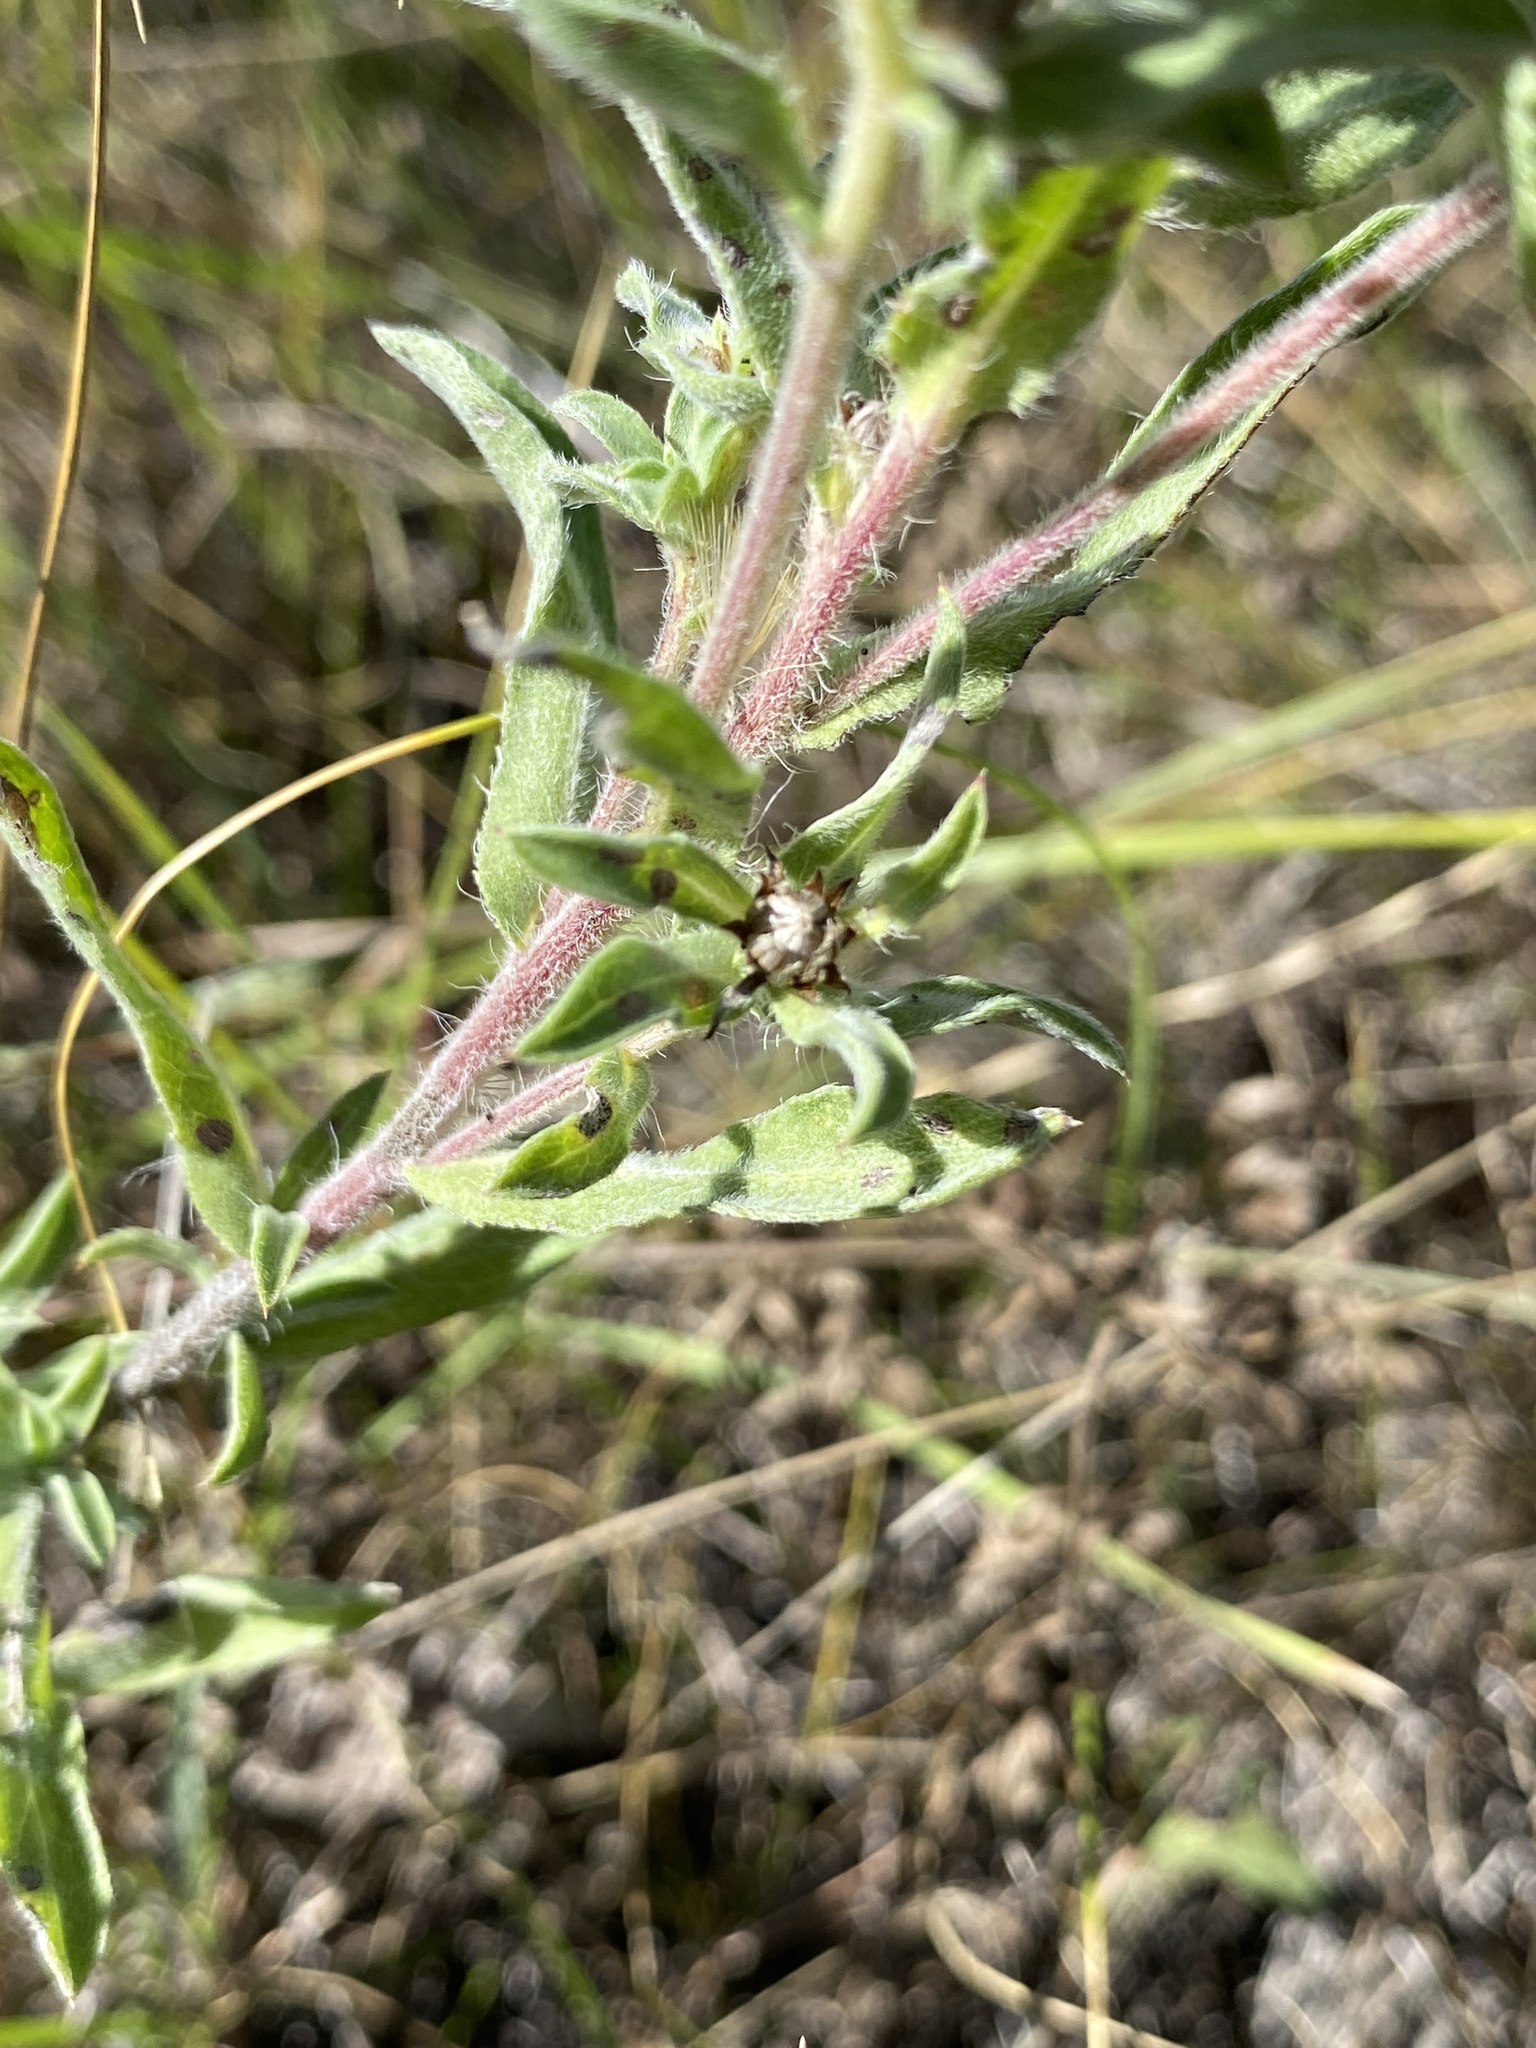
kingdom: Plantae
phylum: Tracheophyta
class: Magnoliopsida
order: Asterales
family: Asteraceae
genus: Heterotheca
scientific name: Heterotheca villosa
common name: Hairy false goldenaster
